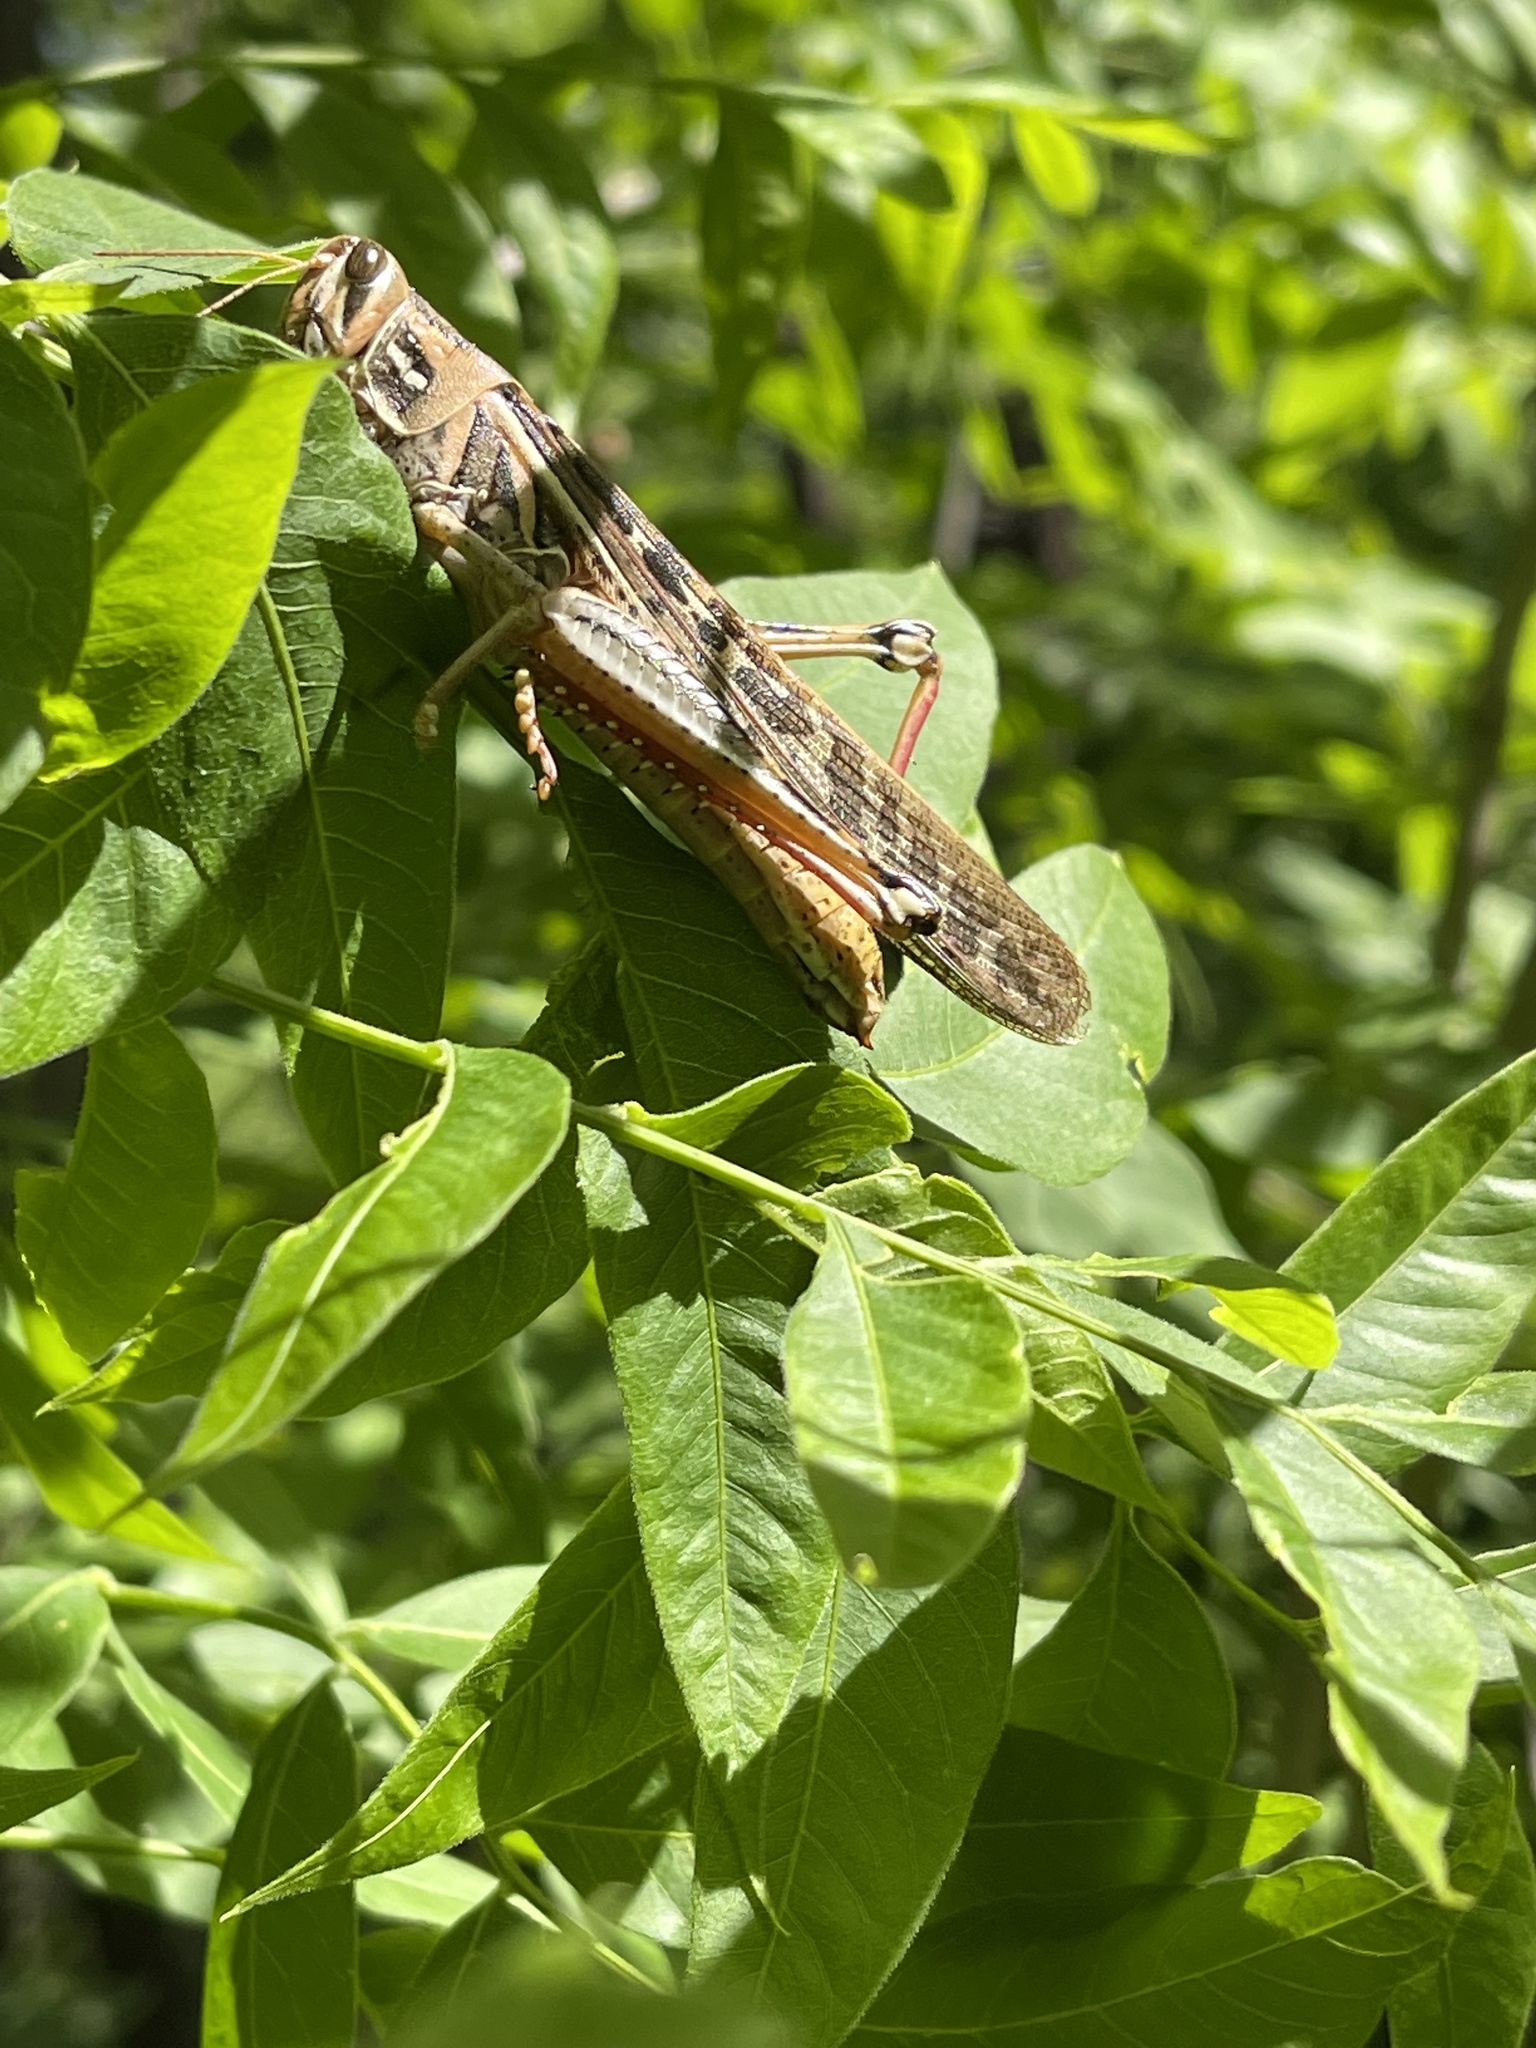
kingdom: Animalia
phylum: Arthropoda
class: Insecta
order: Orthoptera
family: Acrididae
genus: Schistocerca
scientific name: Schistocerca americana
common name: American bird locust
